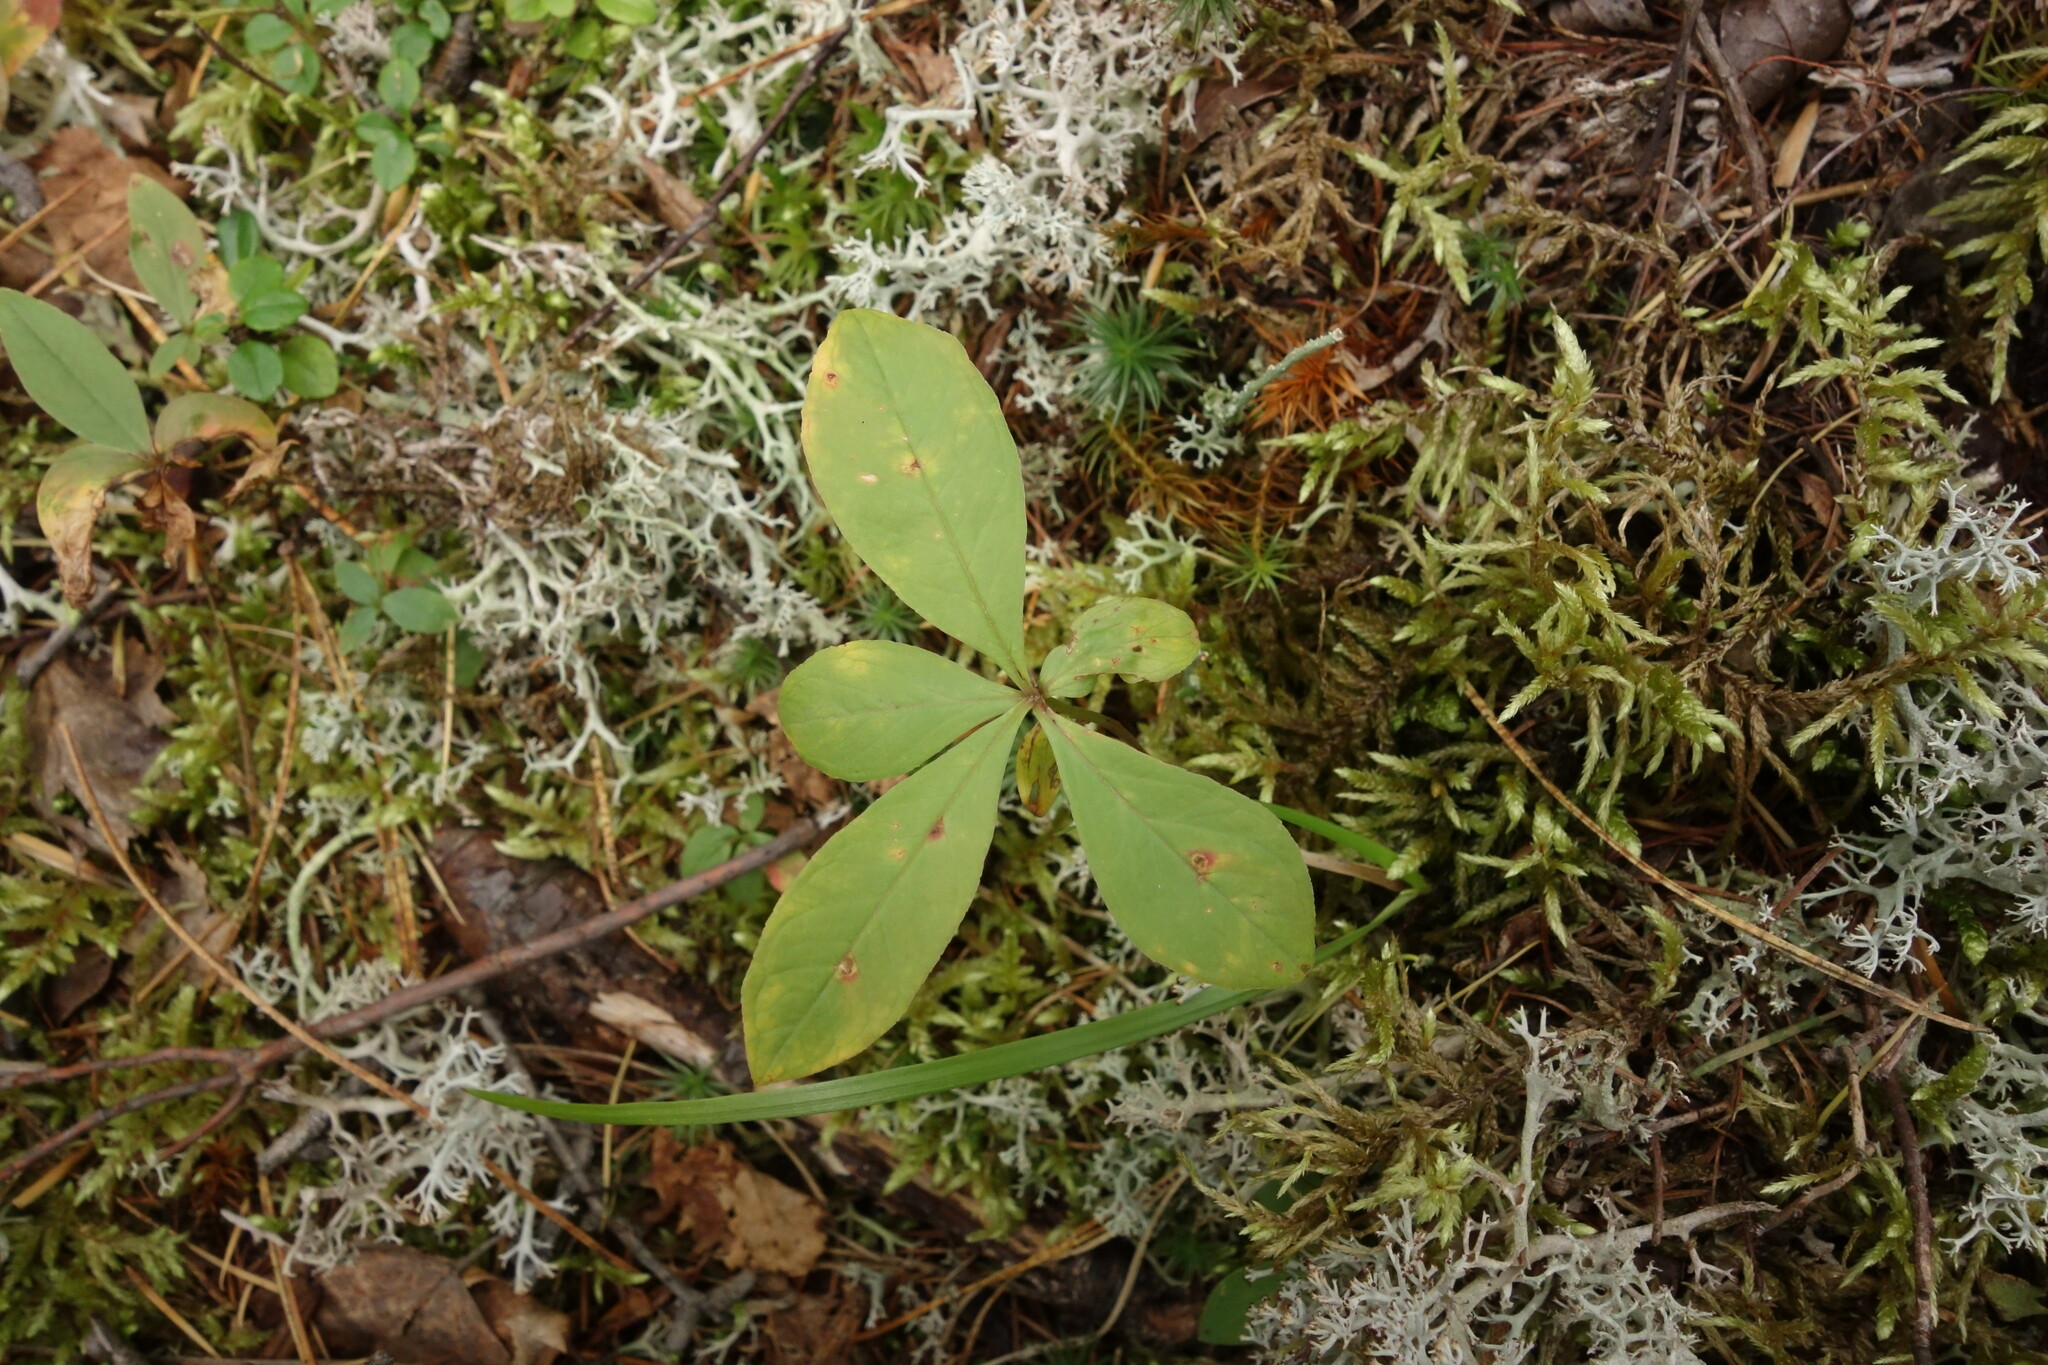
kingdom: Plantae
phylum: Tracheophyta
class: Magnoliopsida
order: Ericales
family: Primulaceae
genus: Lysimachia
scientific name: Lysimachia europaea
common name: Arctic starflower
